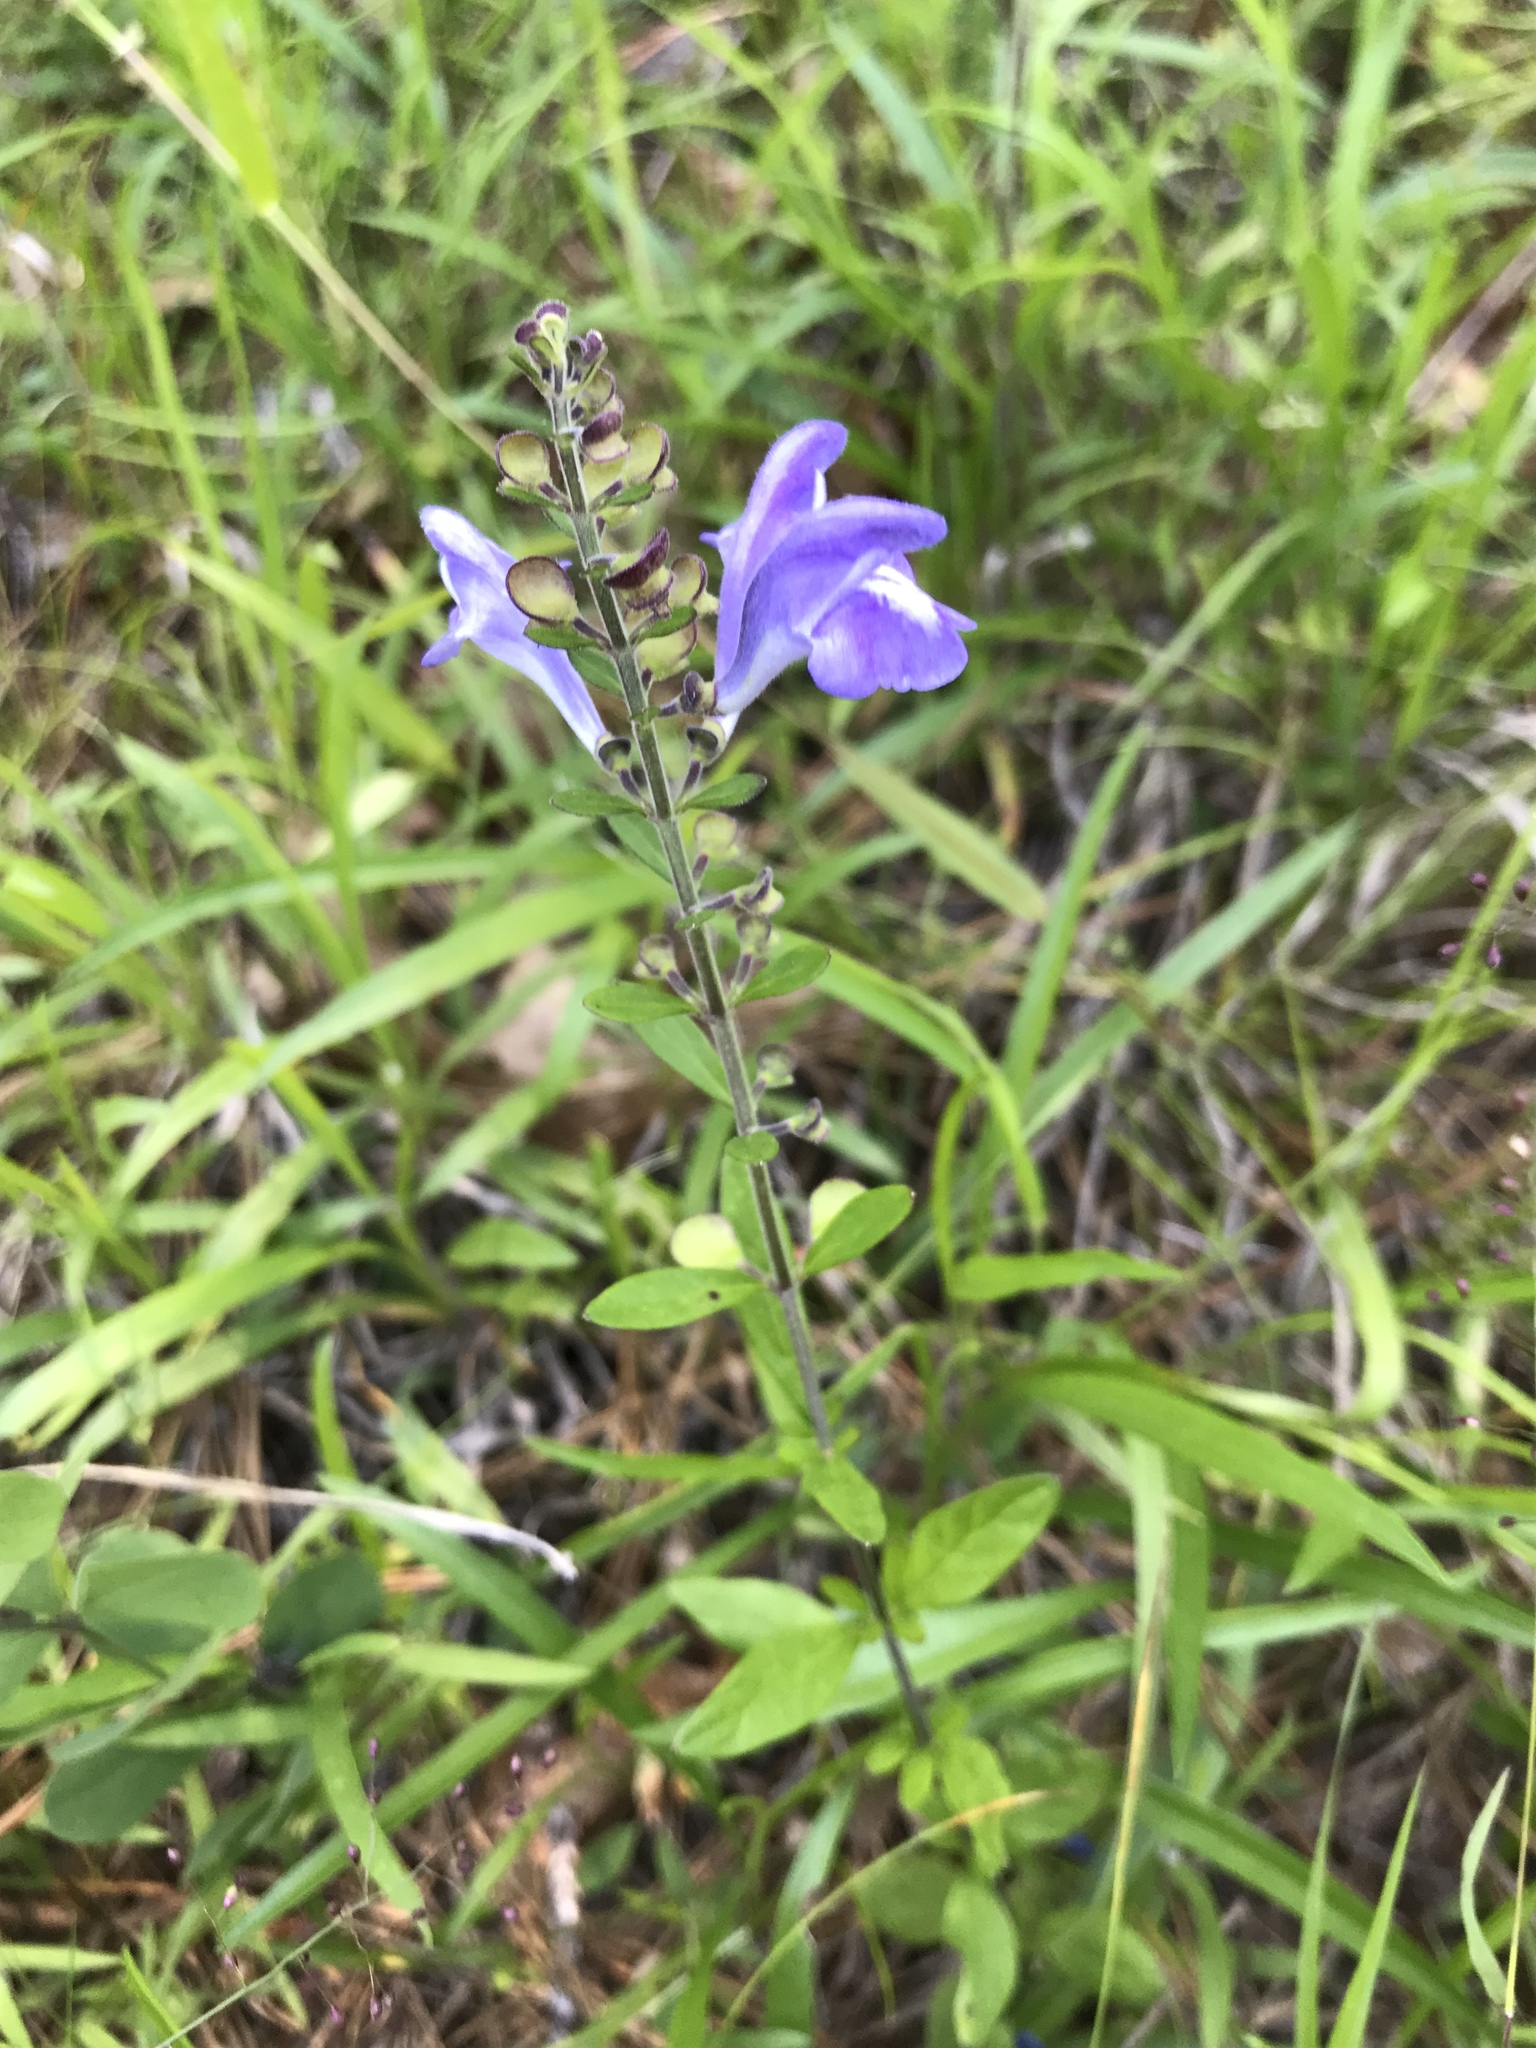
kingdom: Plantae
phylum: Tracheophyta
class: Magnoliopsida
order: Lamiales
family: Lamiaceae
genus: Scutellaria
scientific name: Scutellaria integrifolia
